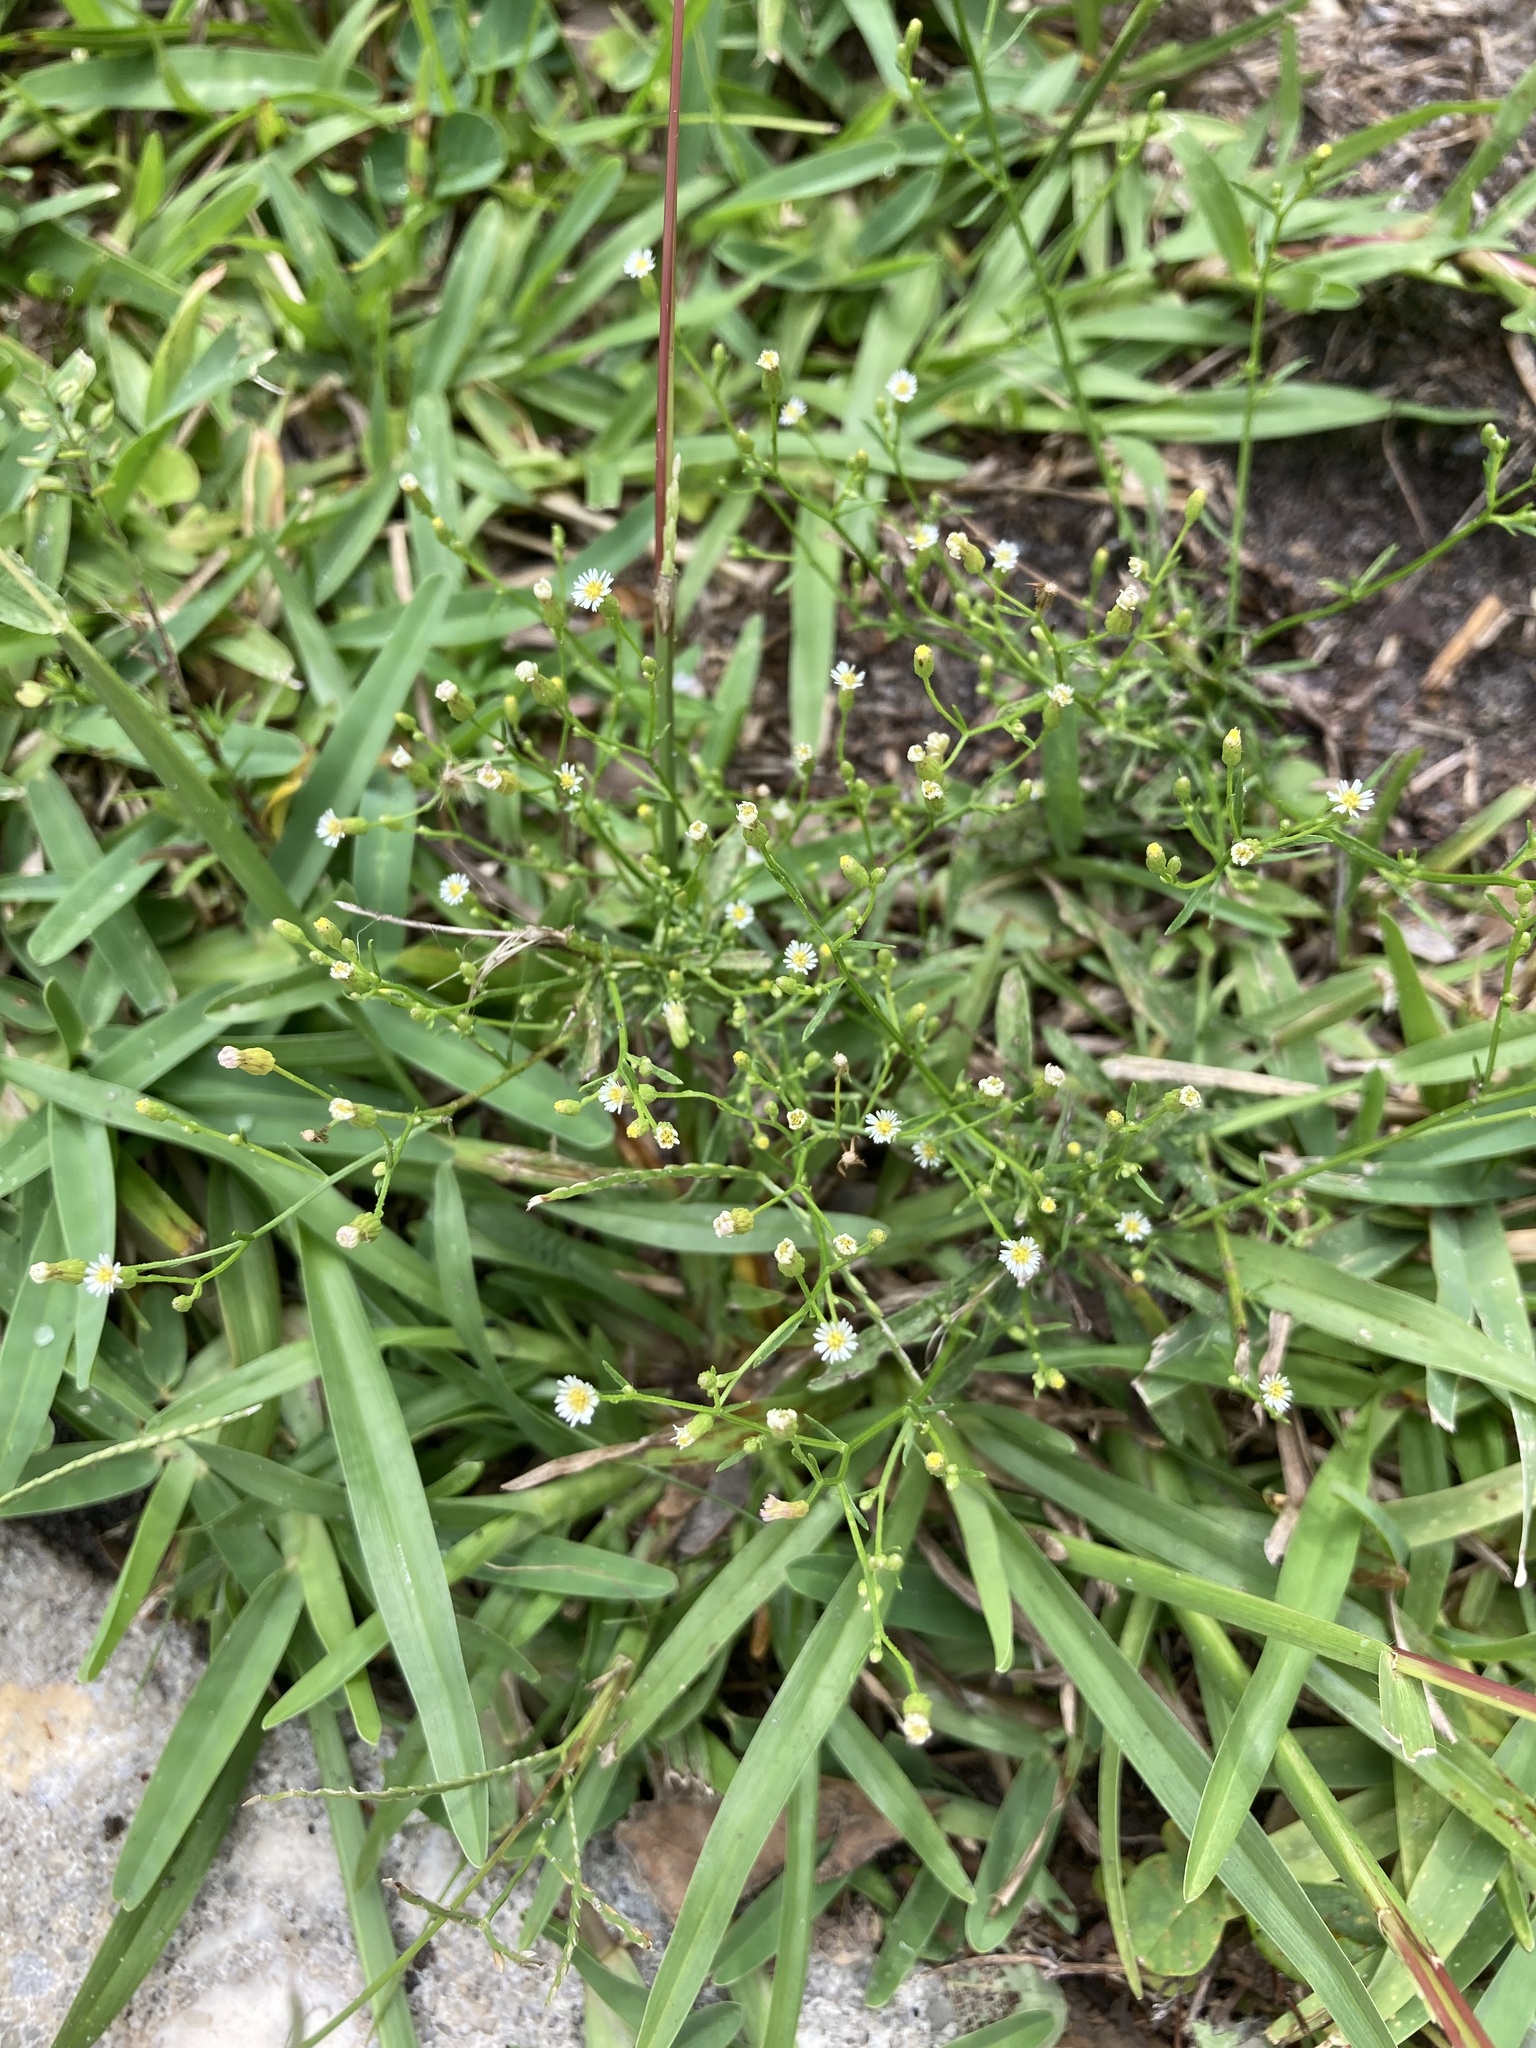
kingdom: Plantae
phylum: Tracheophyta
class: Magnoliopsida
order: Asterales
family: Asteraceae
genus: Erigeron
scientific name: Erigeron canadensis
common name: Canadian fleabane
